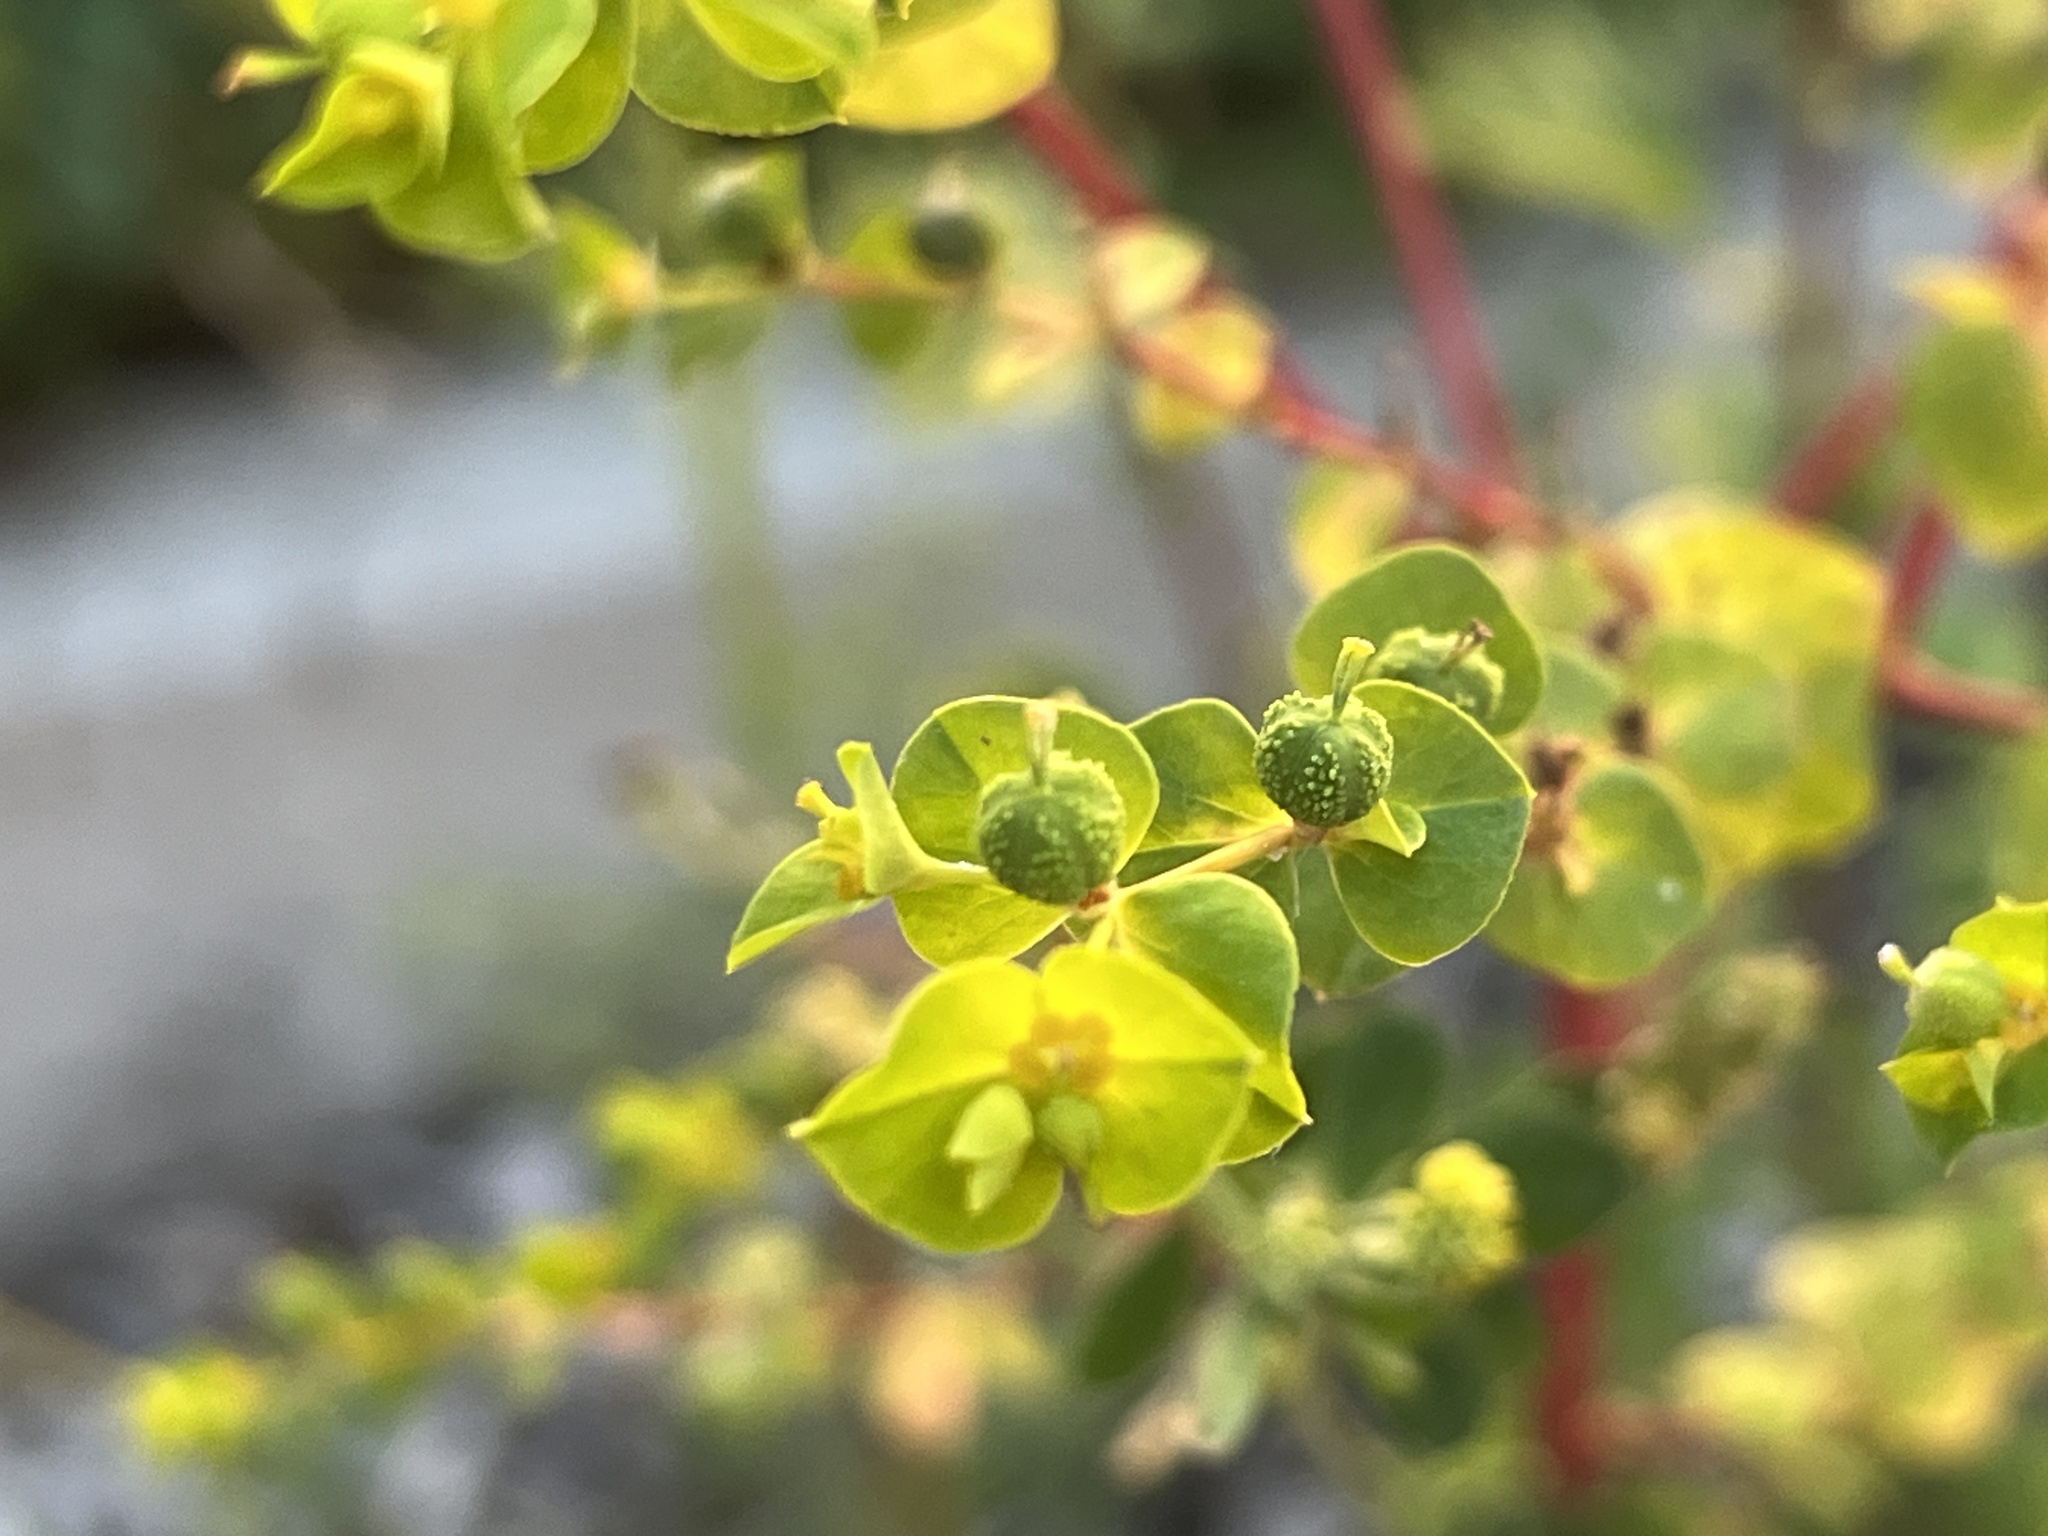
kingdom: Plantae
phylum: Tracheophyta
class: Magnoliopsida
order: Malpighiales
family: Euphorbiaceae
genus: Euphorbia
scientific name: Euphorbia platyphyllos
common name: Broad-leaved spurge
